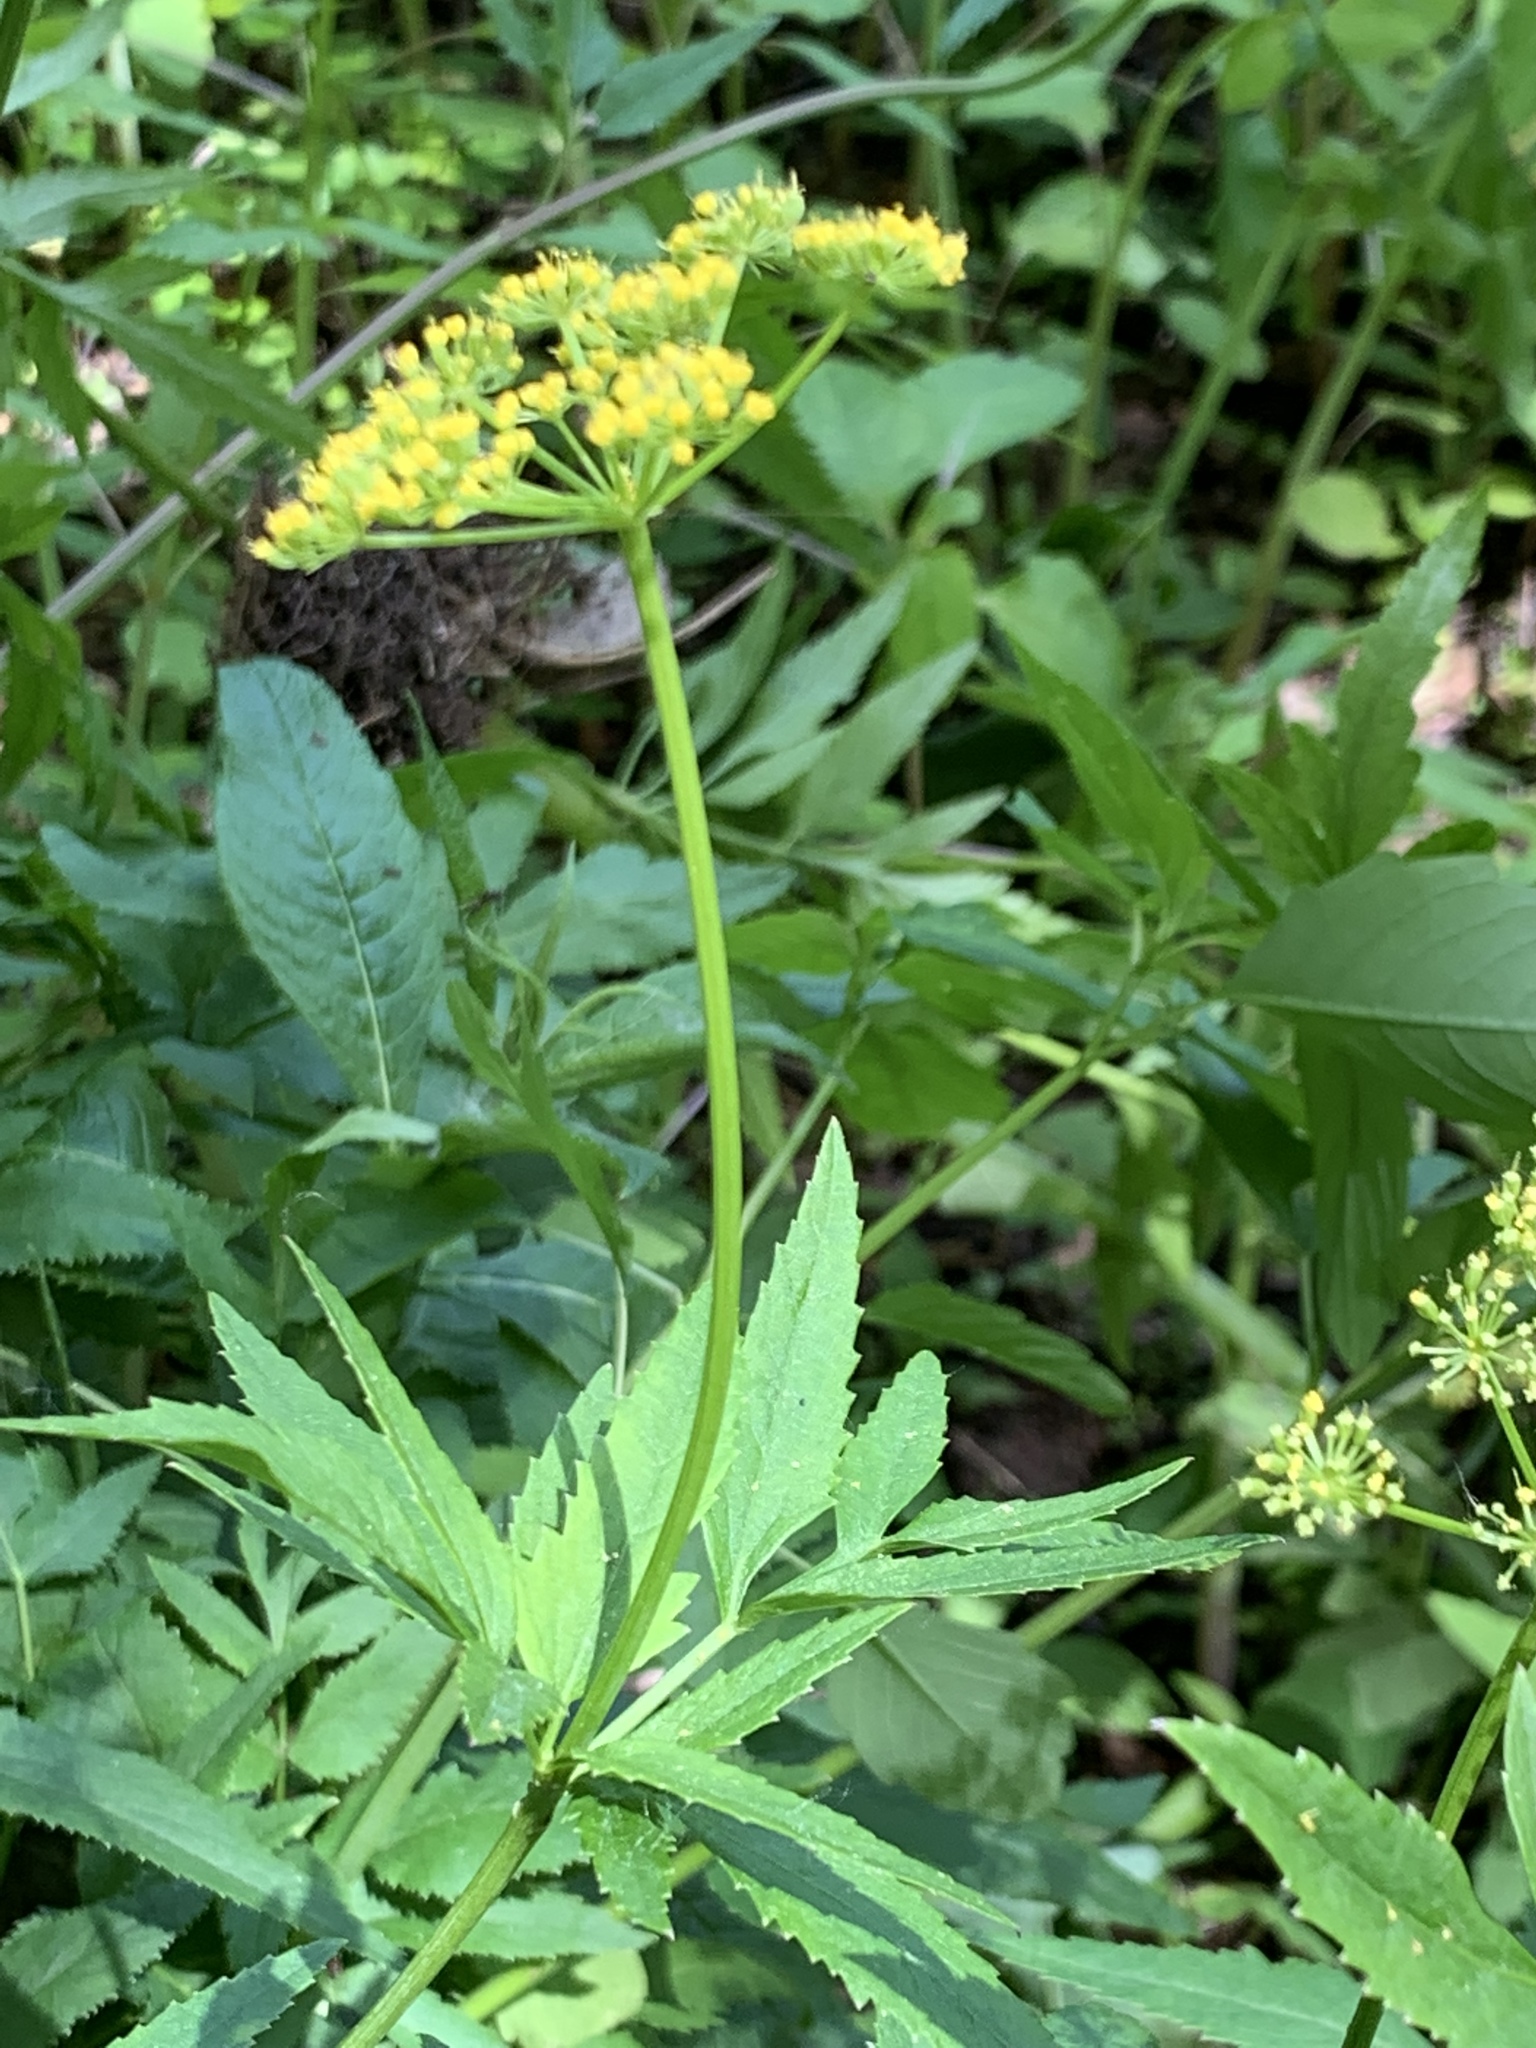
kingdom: Plantae
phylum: Tracheophyta
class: Magnoliopsida
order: Apiales
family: Apiaceae
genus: Zizia
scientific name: Zizia aurea
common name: Golden alexanders
